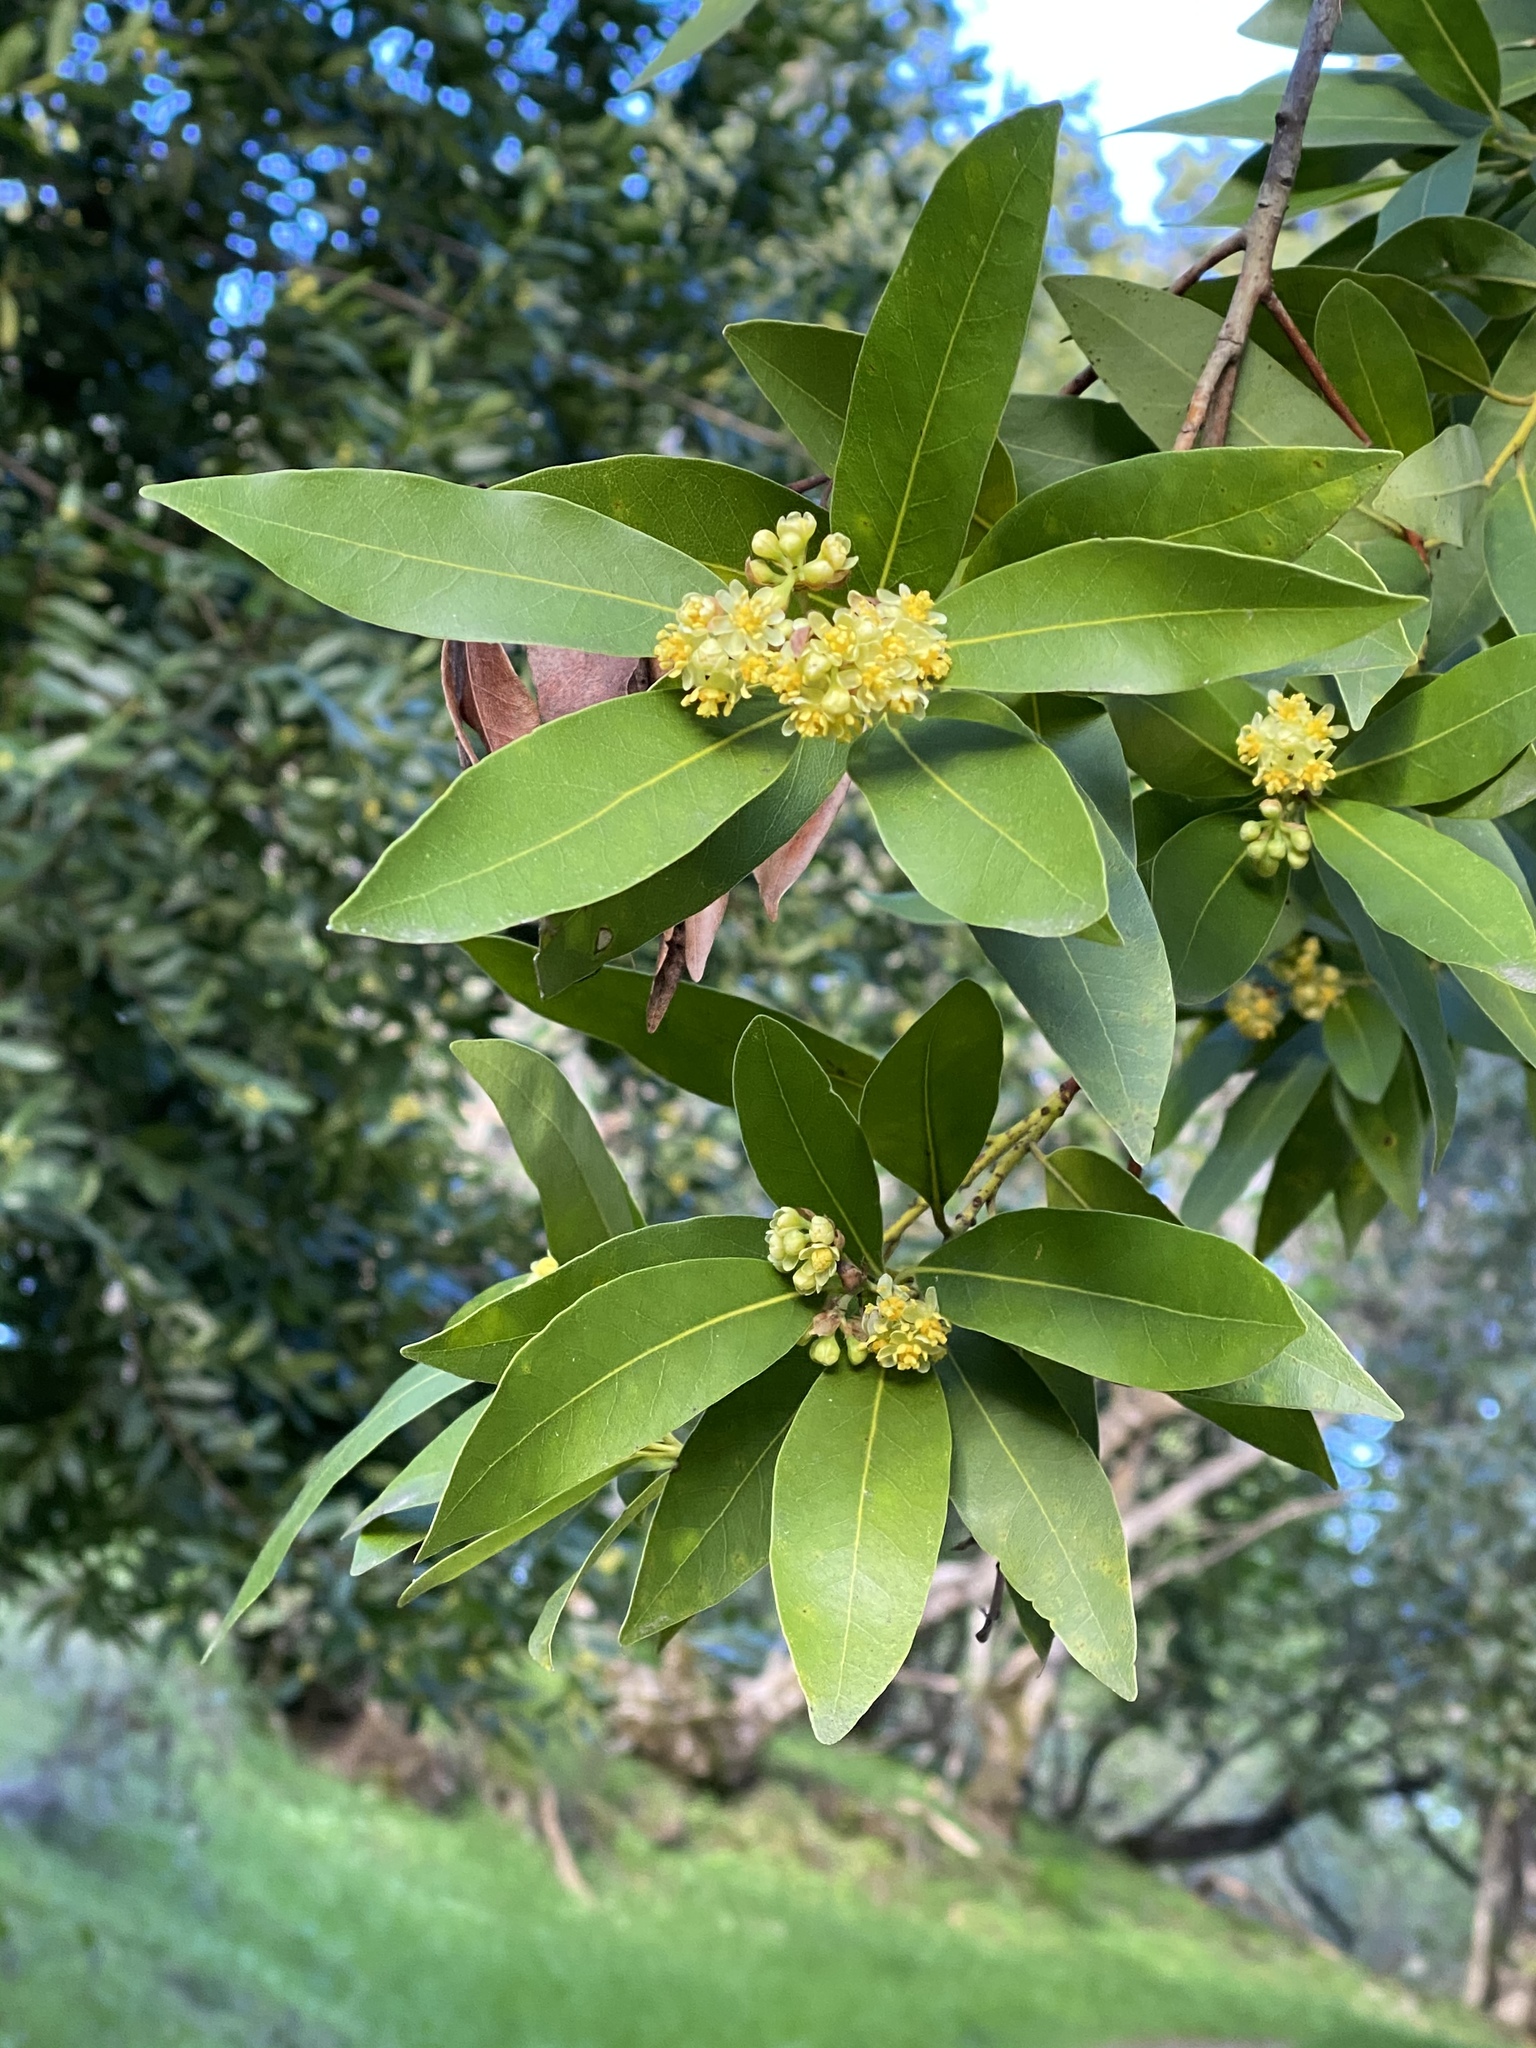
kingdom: Plantae
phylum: Tracheophyta
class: Magnoliopsida
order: Laurales
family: Lauraceae
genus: Umbellularia
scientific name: Umbellularia californica
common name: California bay
